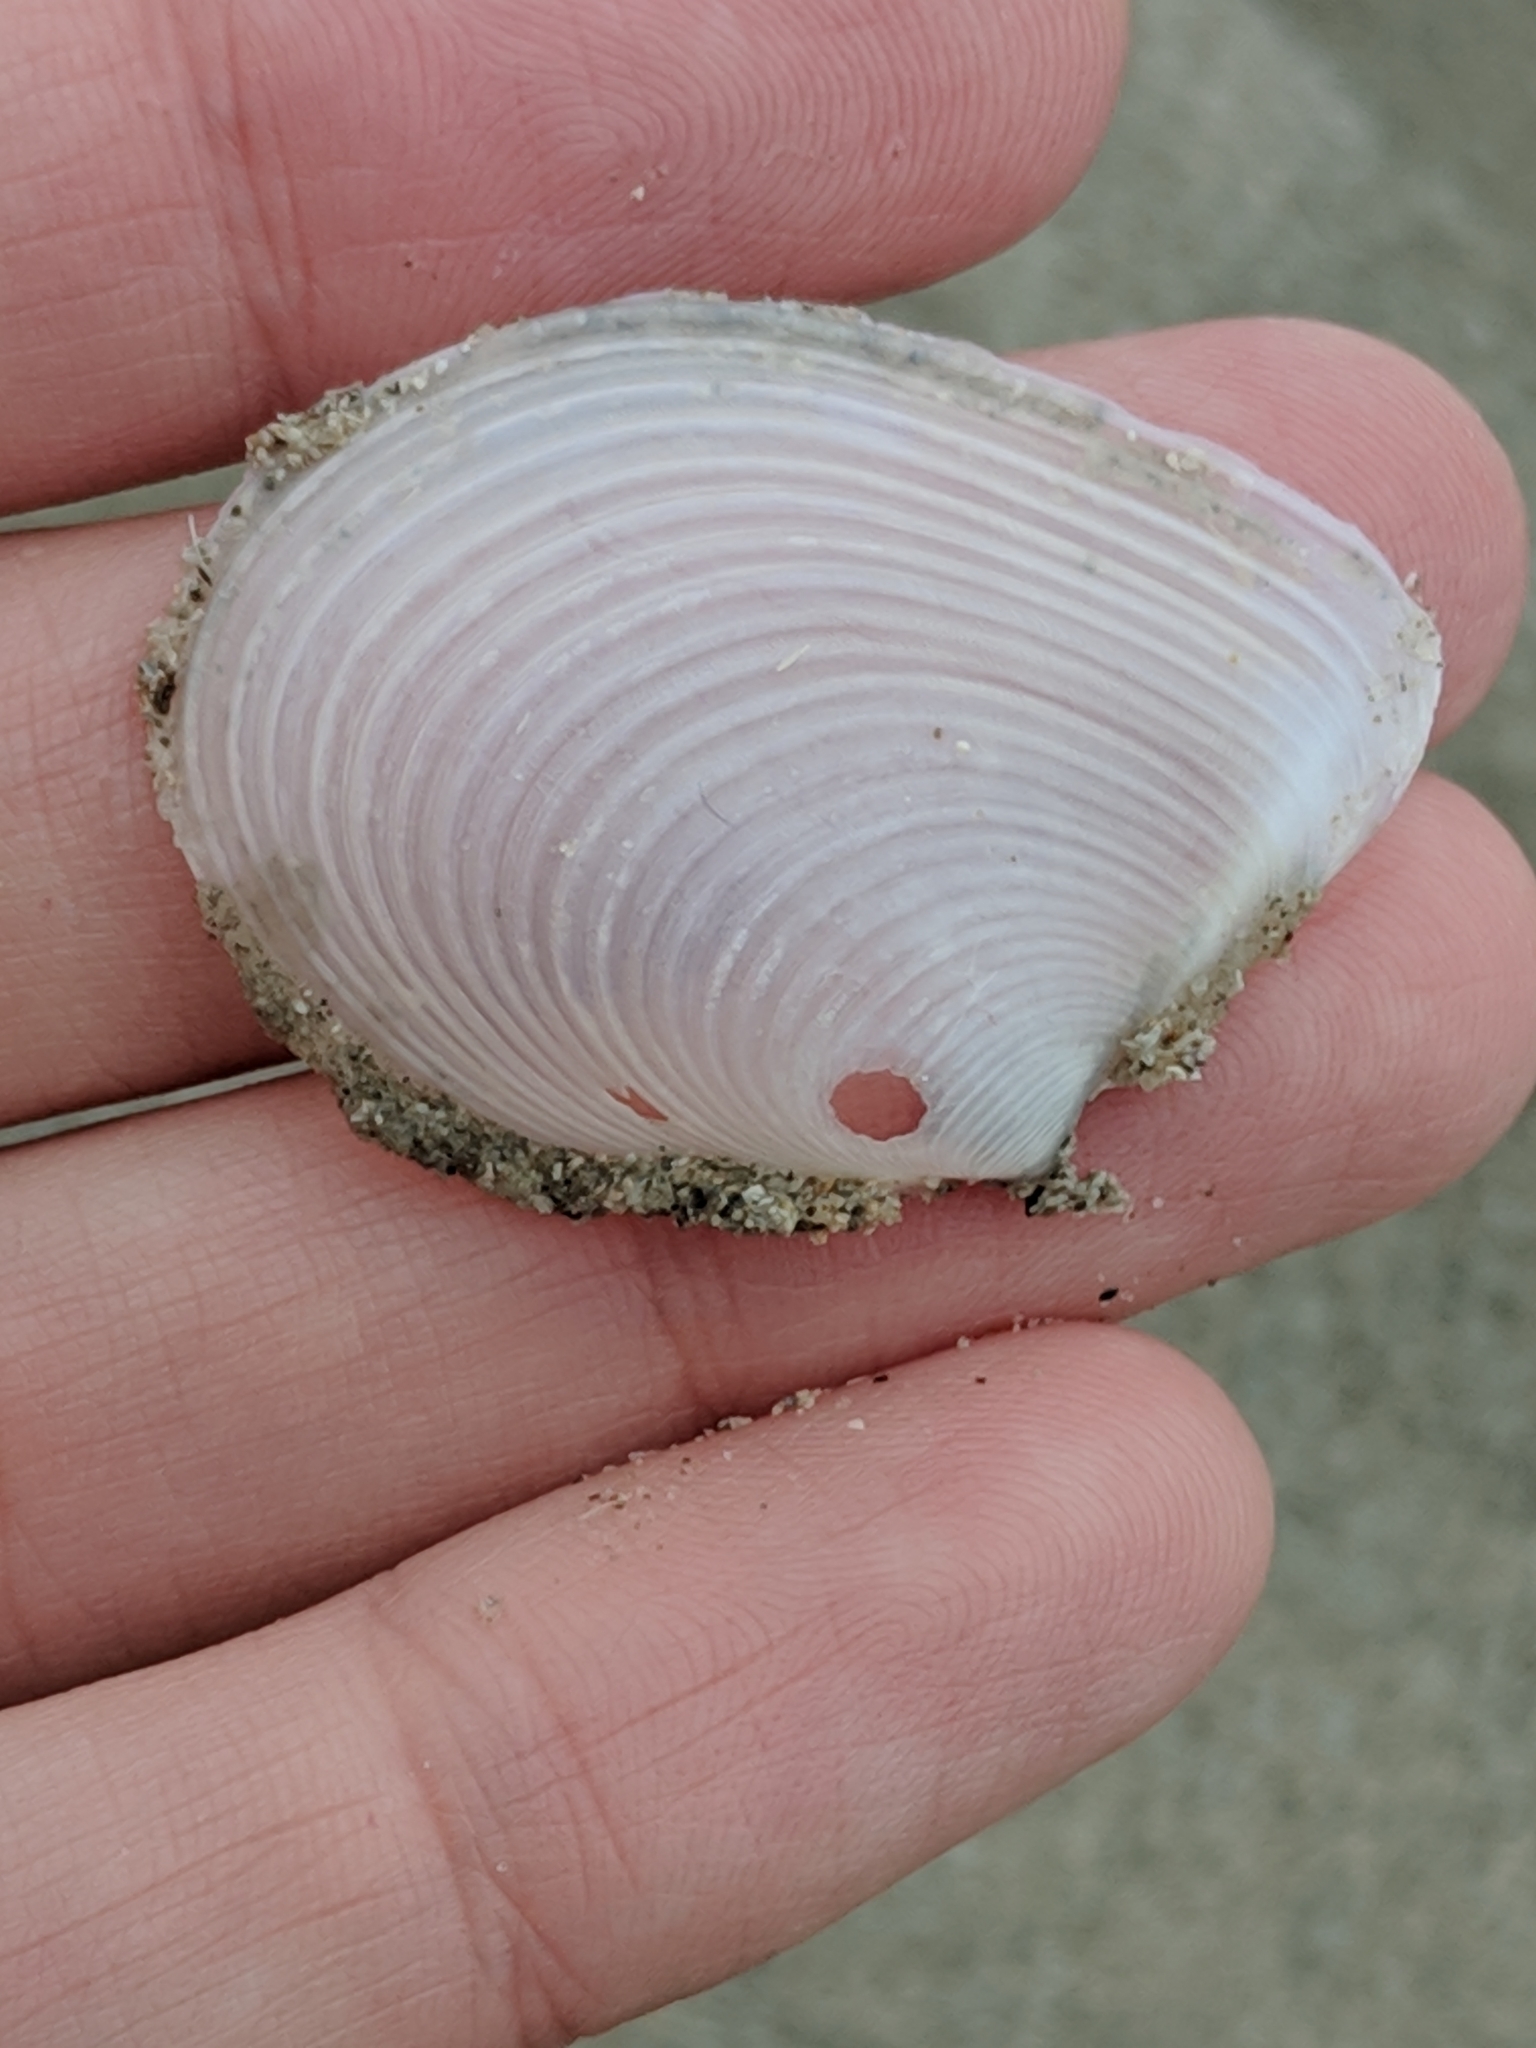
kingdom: Animalia
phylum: Mollusca
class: Bivalvia
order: Venerida
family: Anatinellidae
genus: Raeta
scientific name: Raeta plicatella
